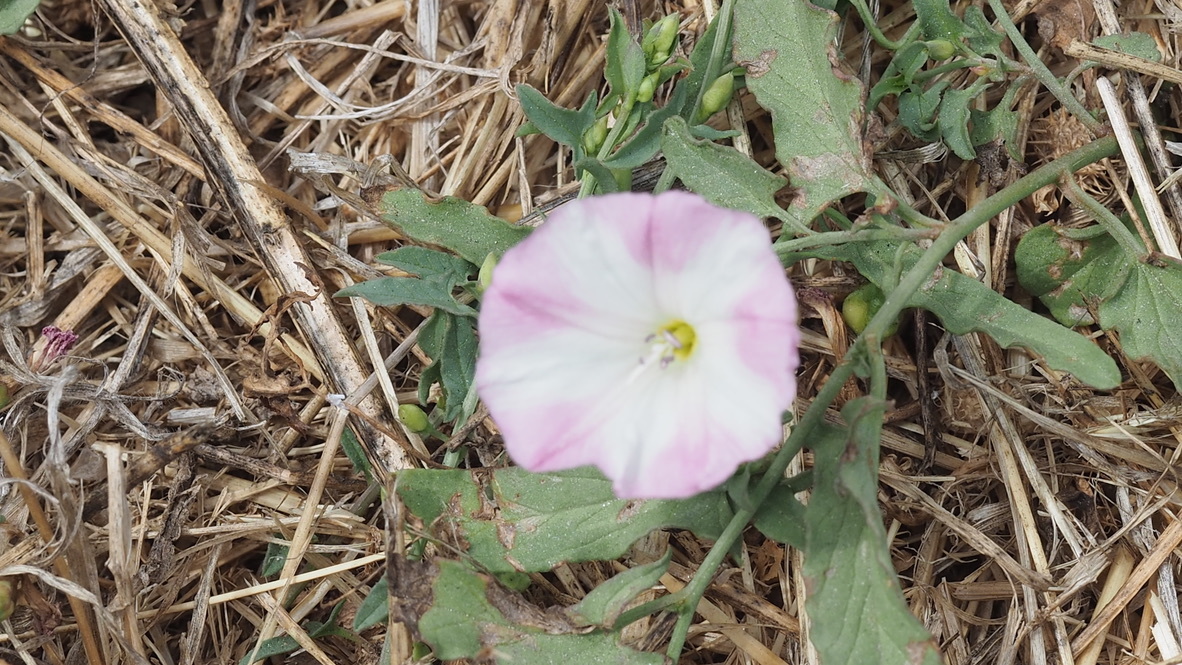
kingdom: Plantae
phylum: Tracheophyta
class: Magnoliopsida
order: Solanales
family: Convolvulaceae
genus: Convolvulus
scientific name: Convolvulus arvensis
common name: Field bindweed
